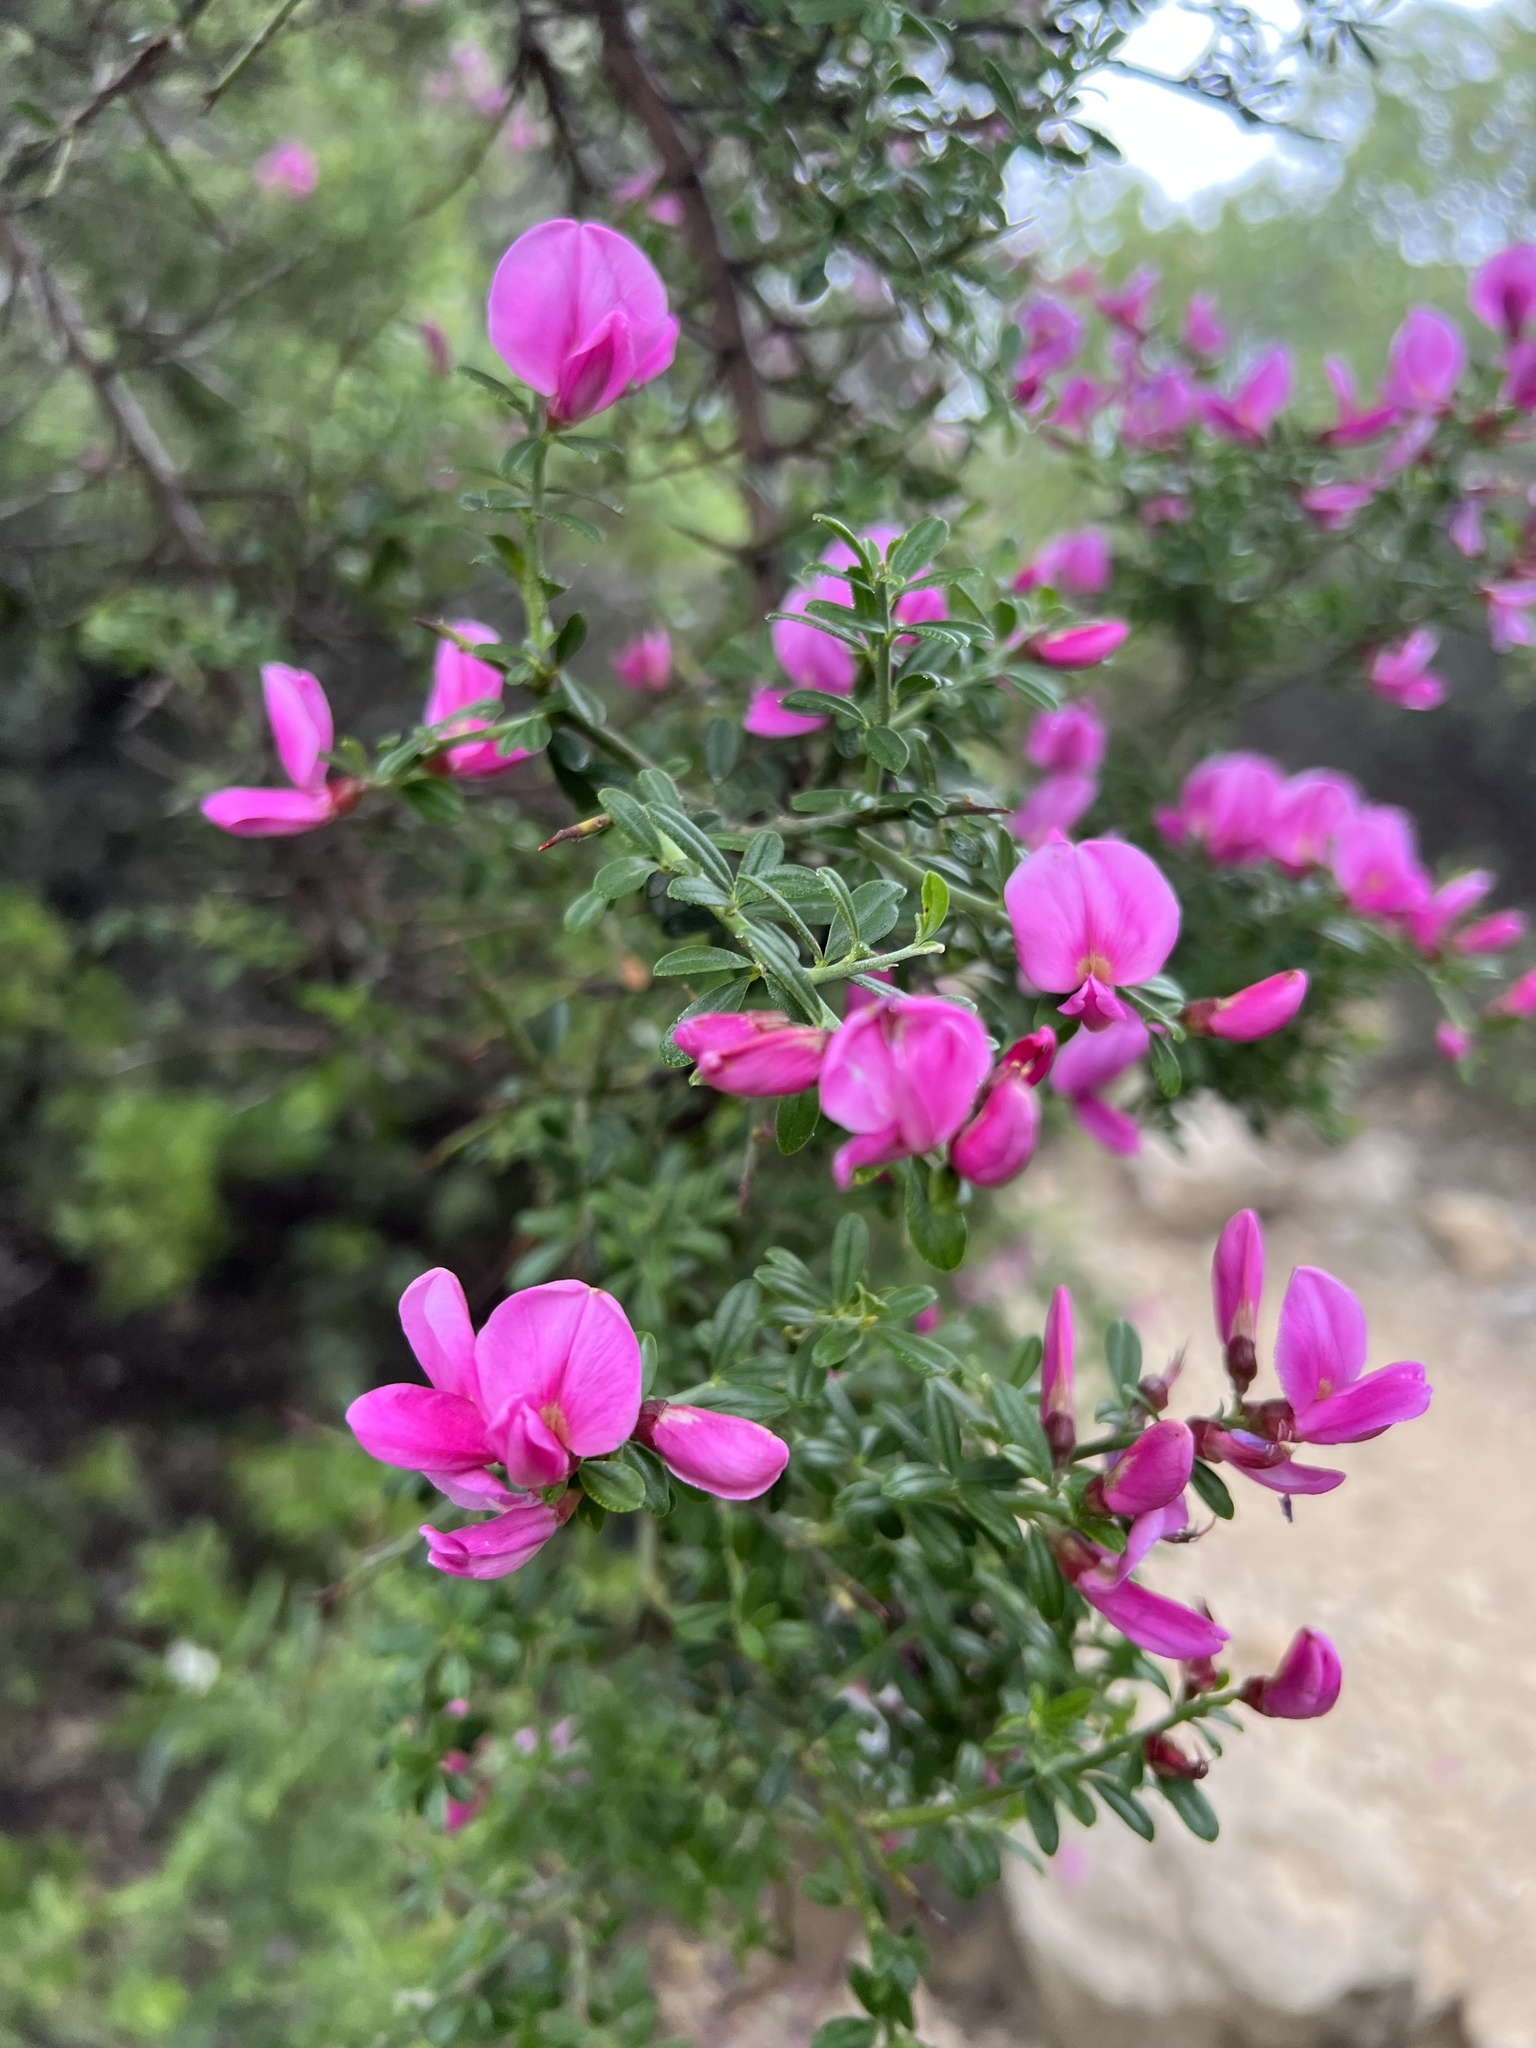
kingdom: Plantae
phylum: Tracheophyta
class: Magnoliopsida
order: Fabales
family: Fabaceae
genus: Pickeringia
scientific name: Pickeringia montana
